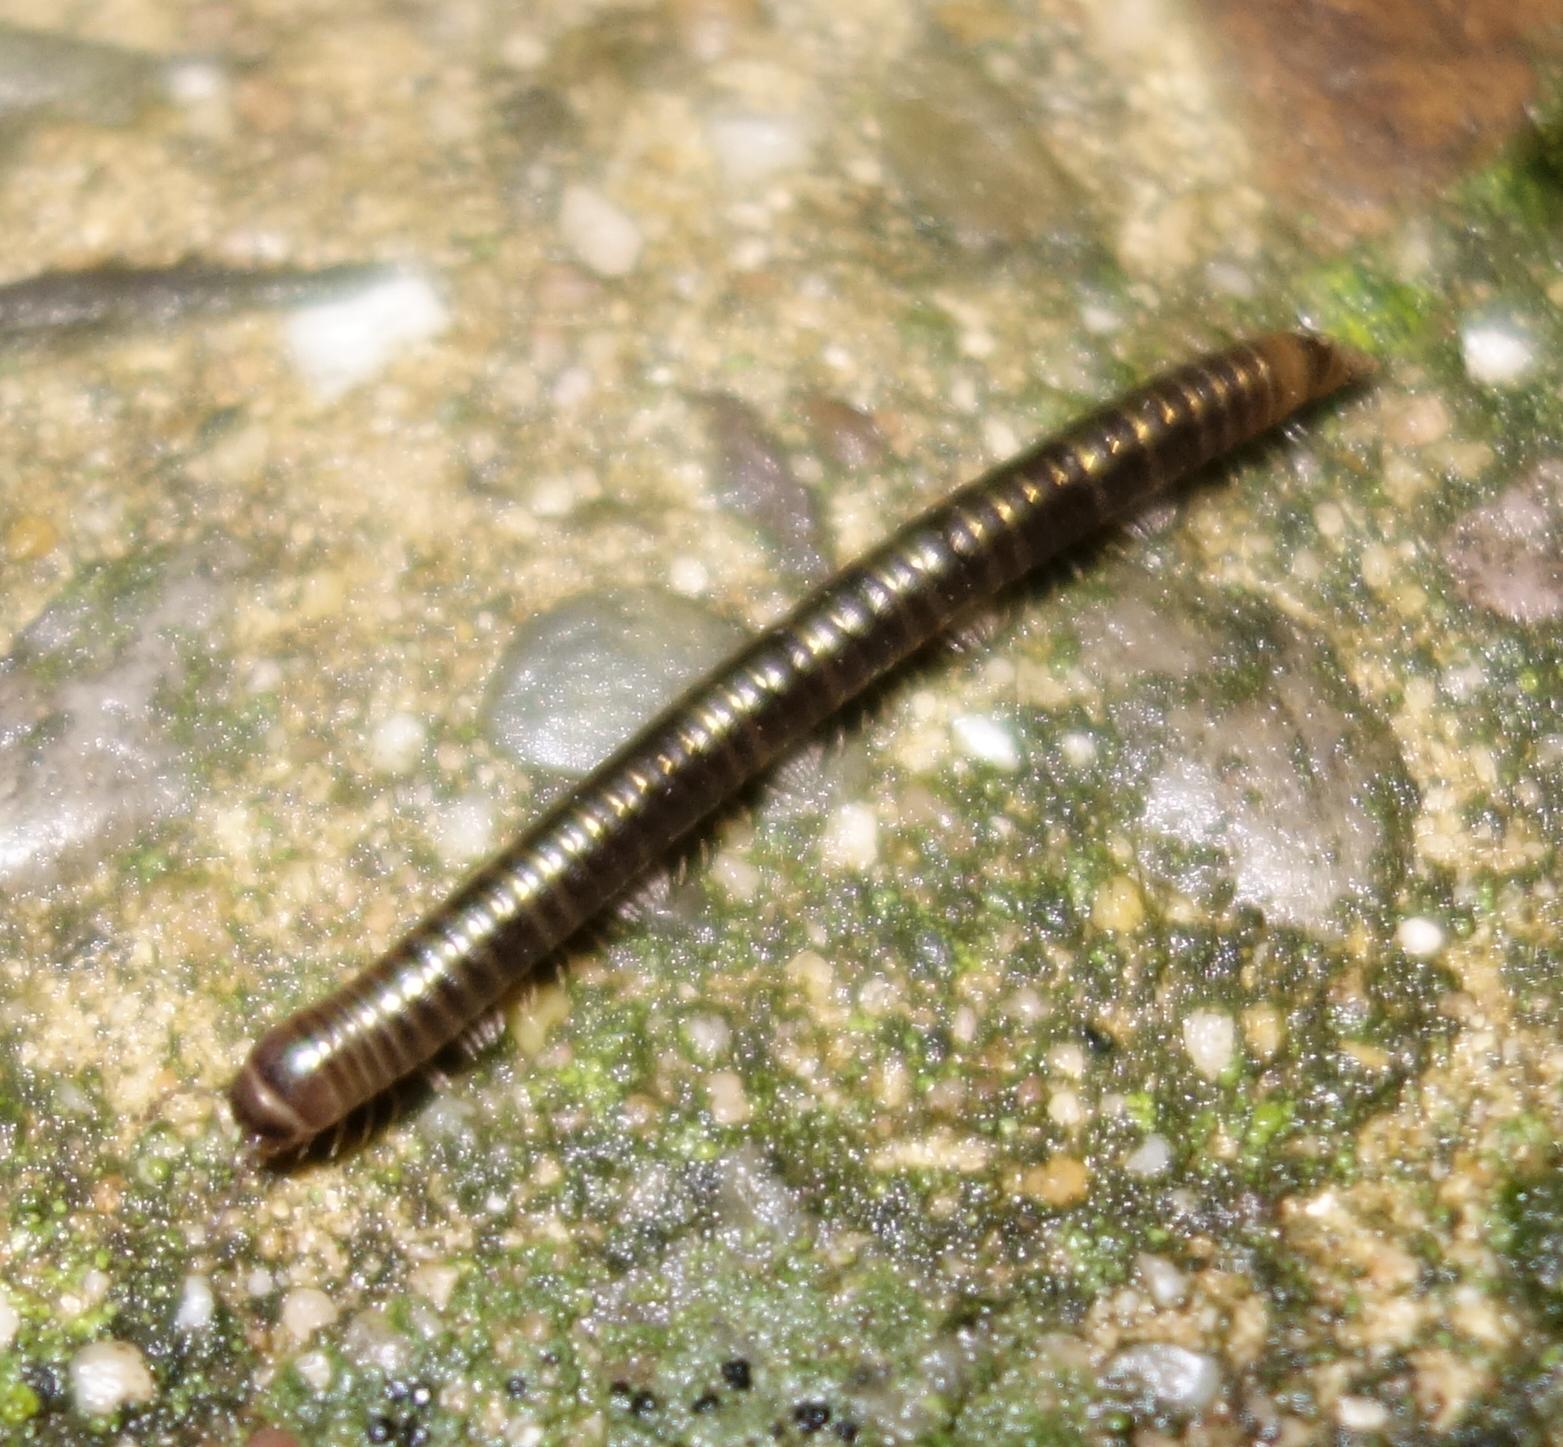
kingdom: Animalia
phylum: Arthropoda
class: Diplopoda
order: Julida
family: Julidae
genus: Cylindroiulus
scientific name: Cylindroiulus caeruleocinctus
